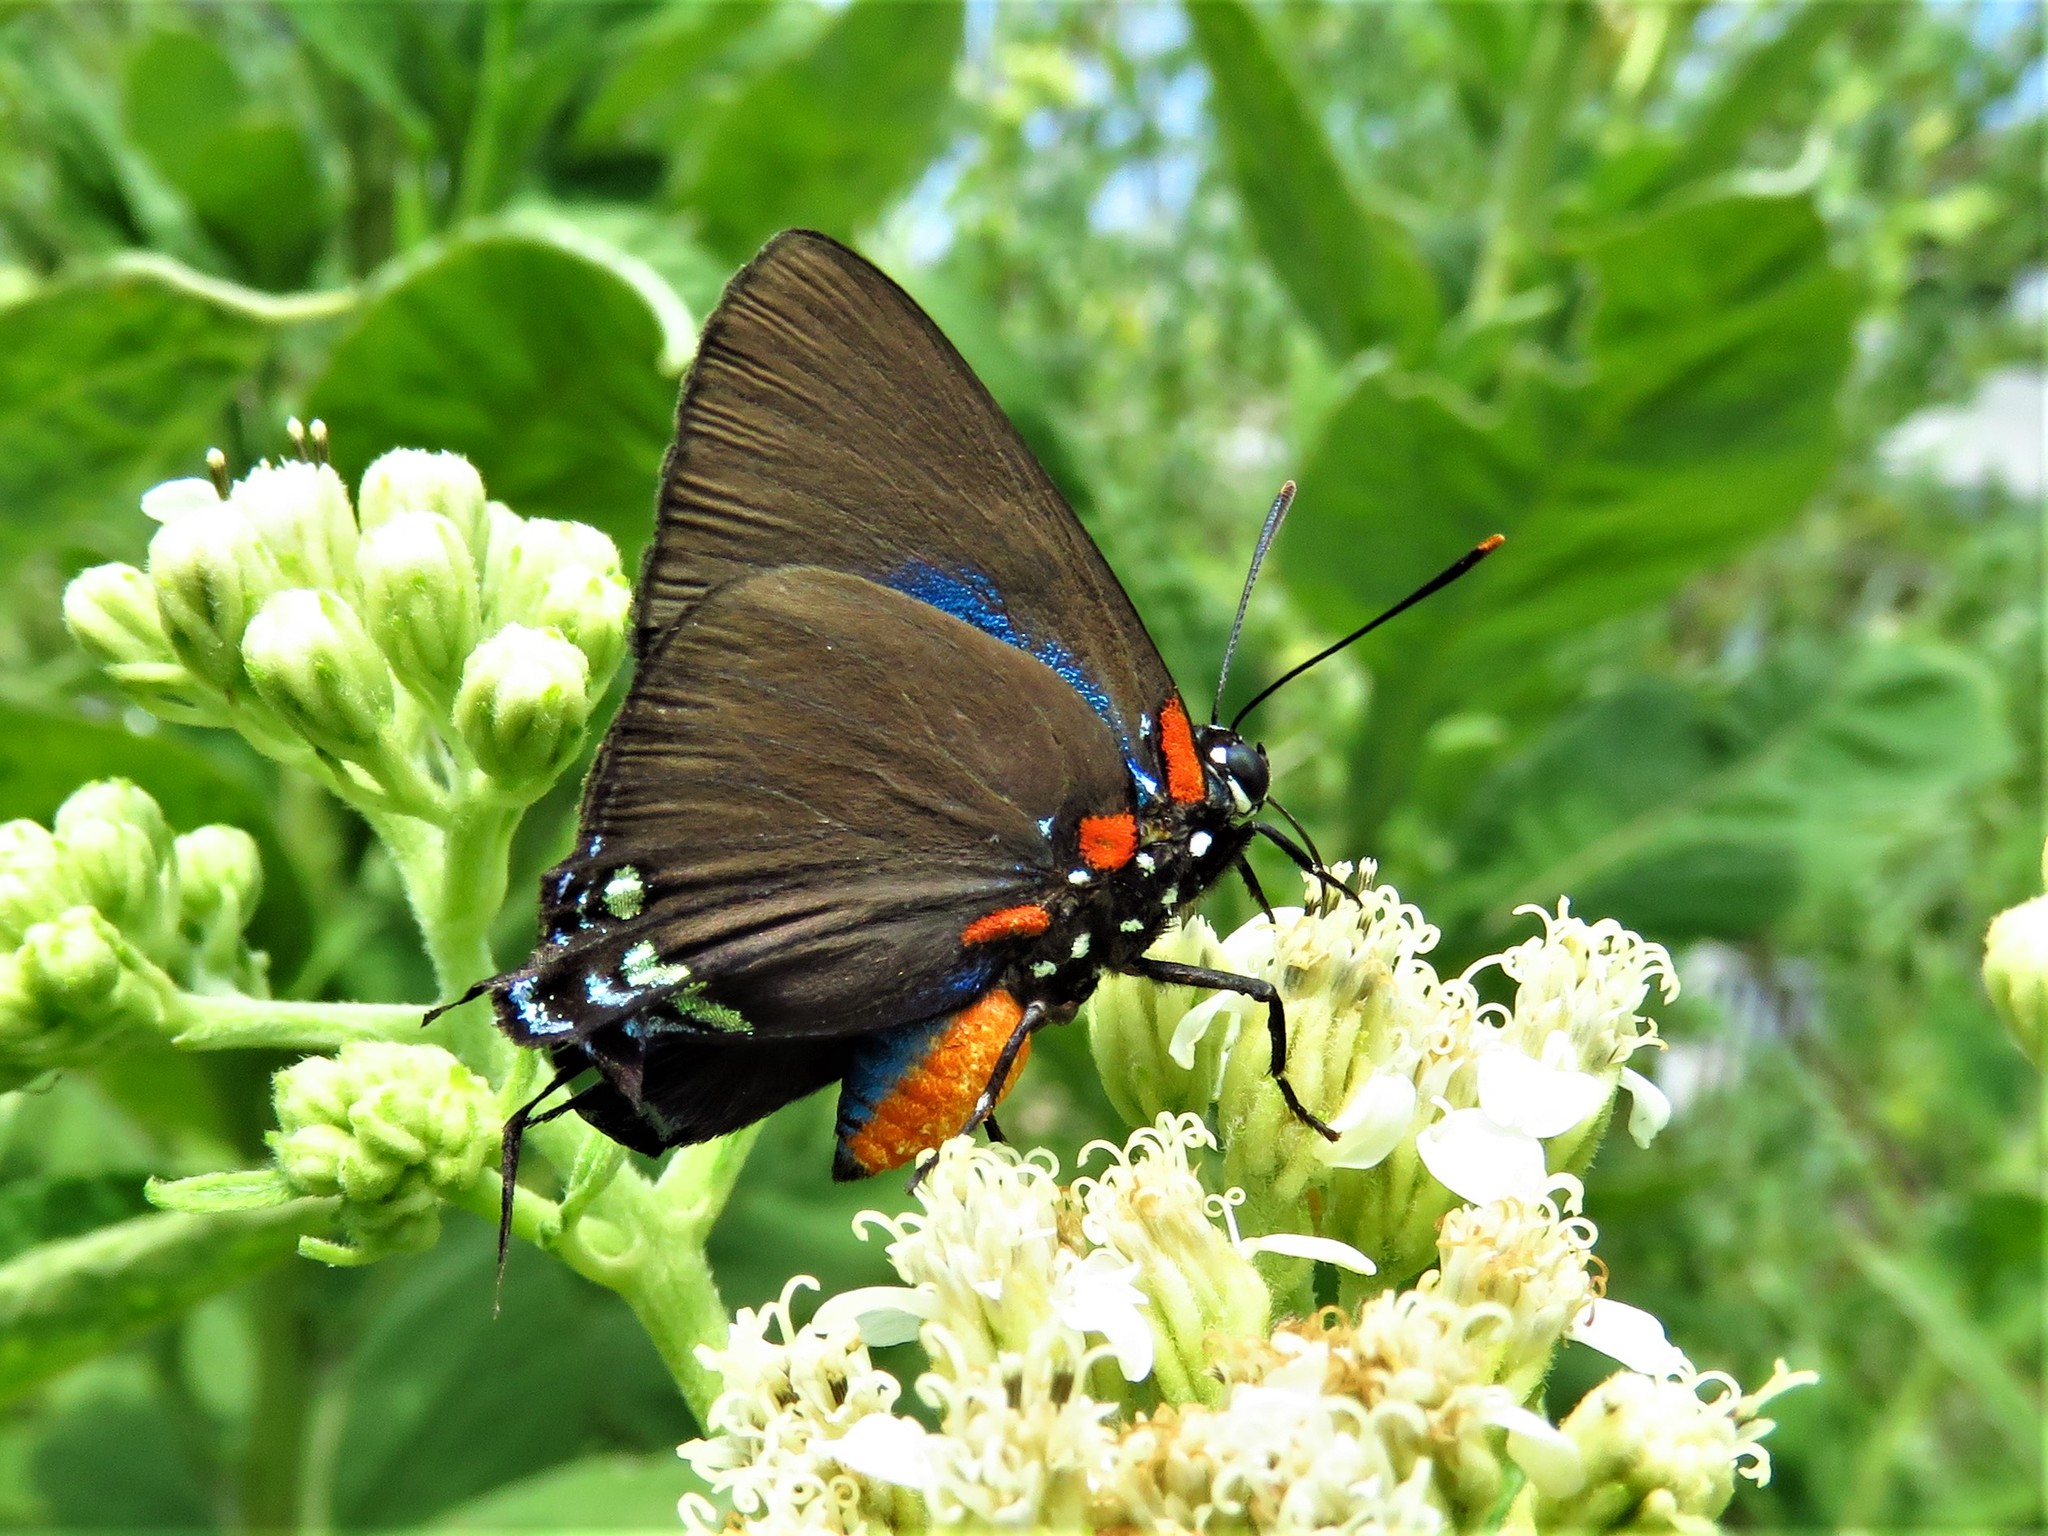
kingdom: Animalia
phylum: Arthropoda
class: Insecta
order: Lepidoptera
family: Lycaenidae
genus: Atlides
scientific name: Atlides halesus
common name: Great purple hairstreak
